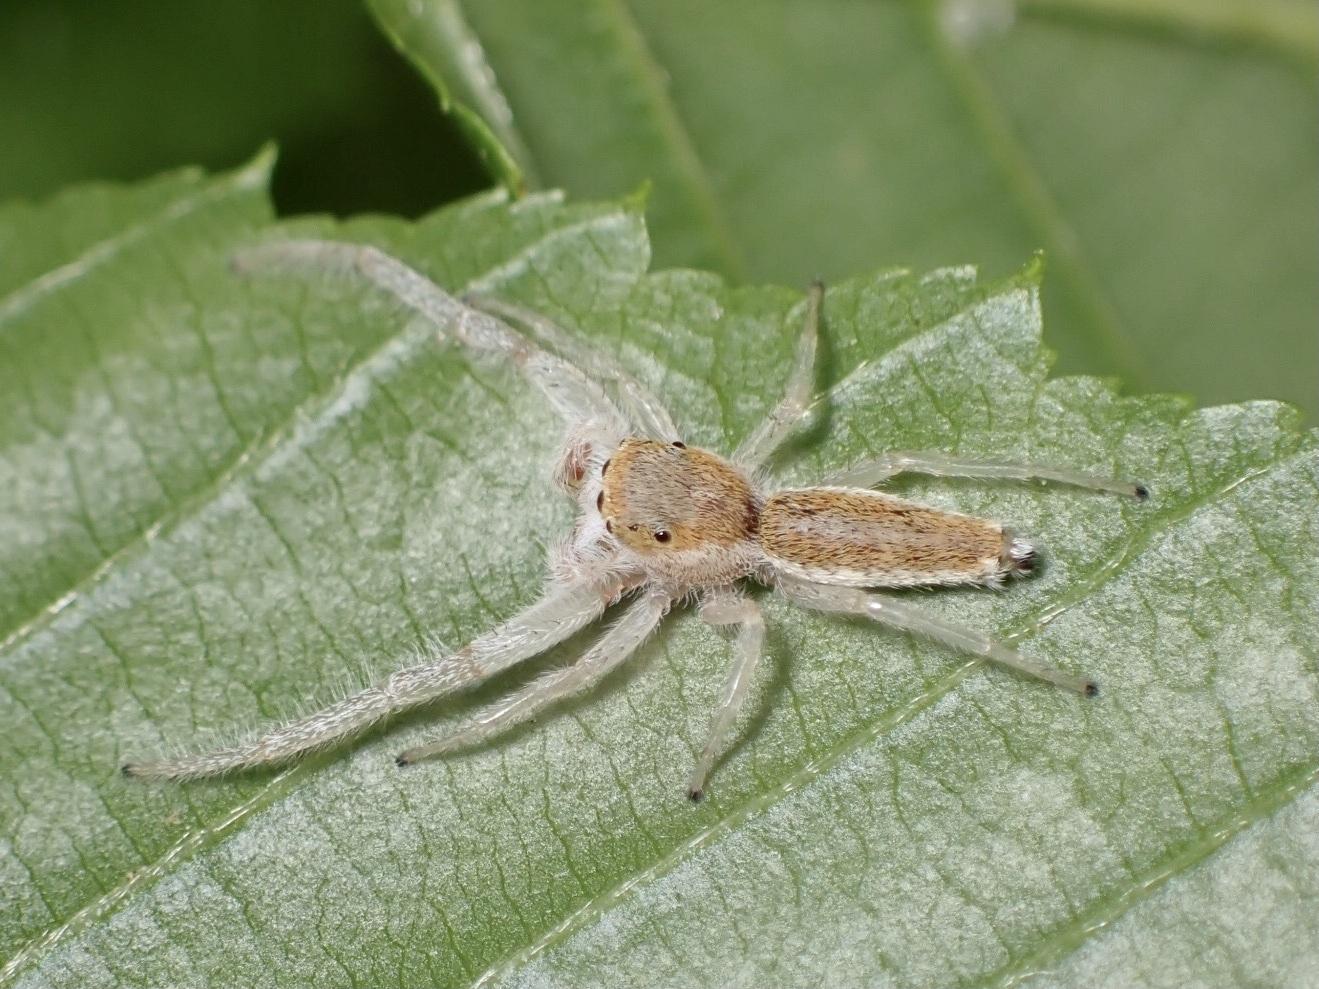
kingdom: Animalia
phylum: Arthropoda
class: Arachnida
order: Araneae
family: Salticidae
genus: Hentzia
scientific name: Hentzia mitrata
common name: White-jawed jumping spider
